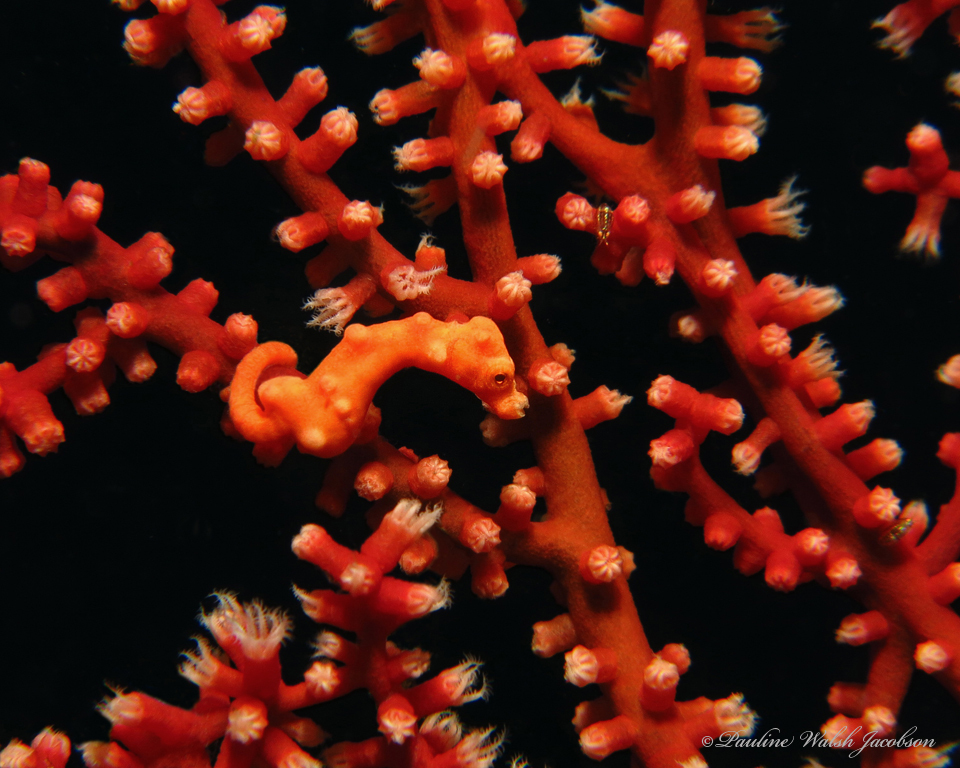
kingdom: Animalia
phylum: Chordata
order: Syngnathiformes
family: Syngnathidae
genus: Hippocampus
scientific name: Hippocampus denise
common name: Denise's pygmy seahorse
